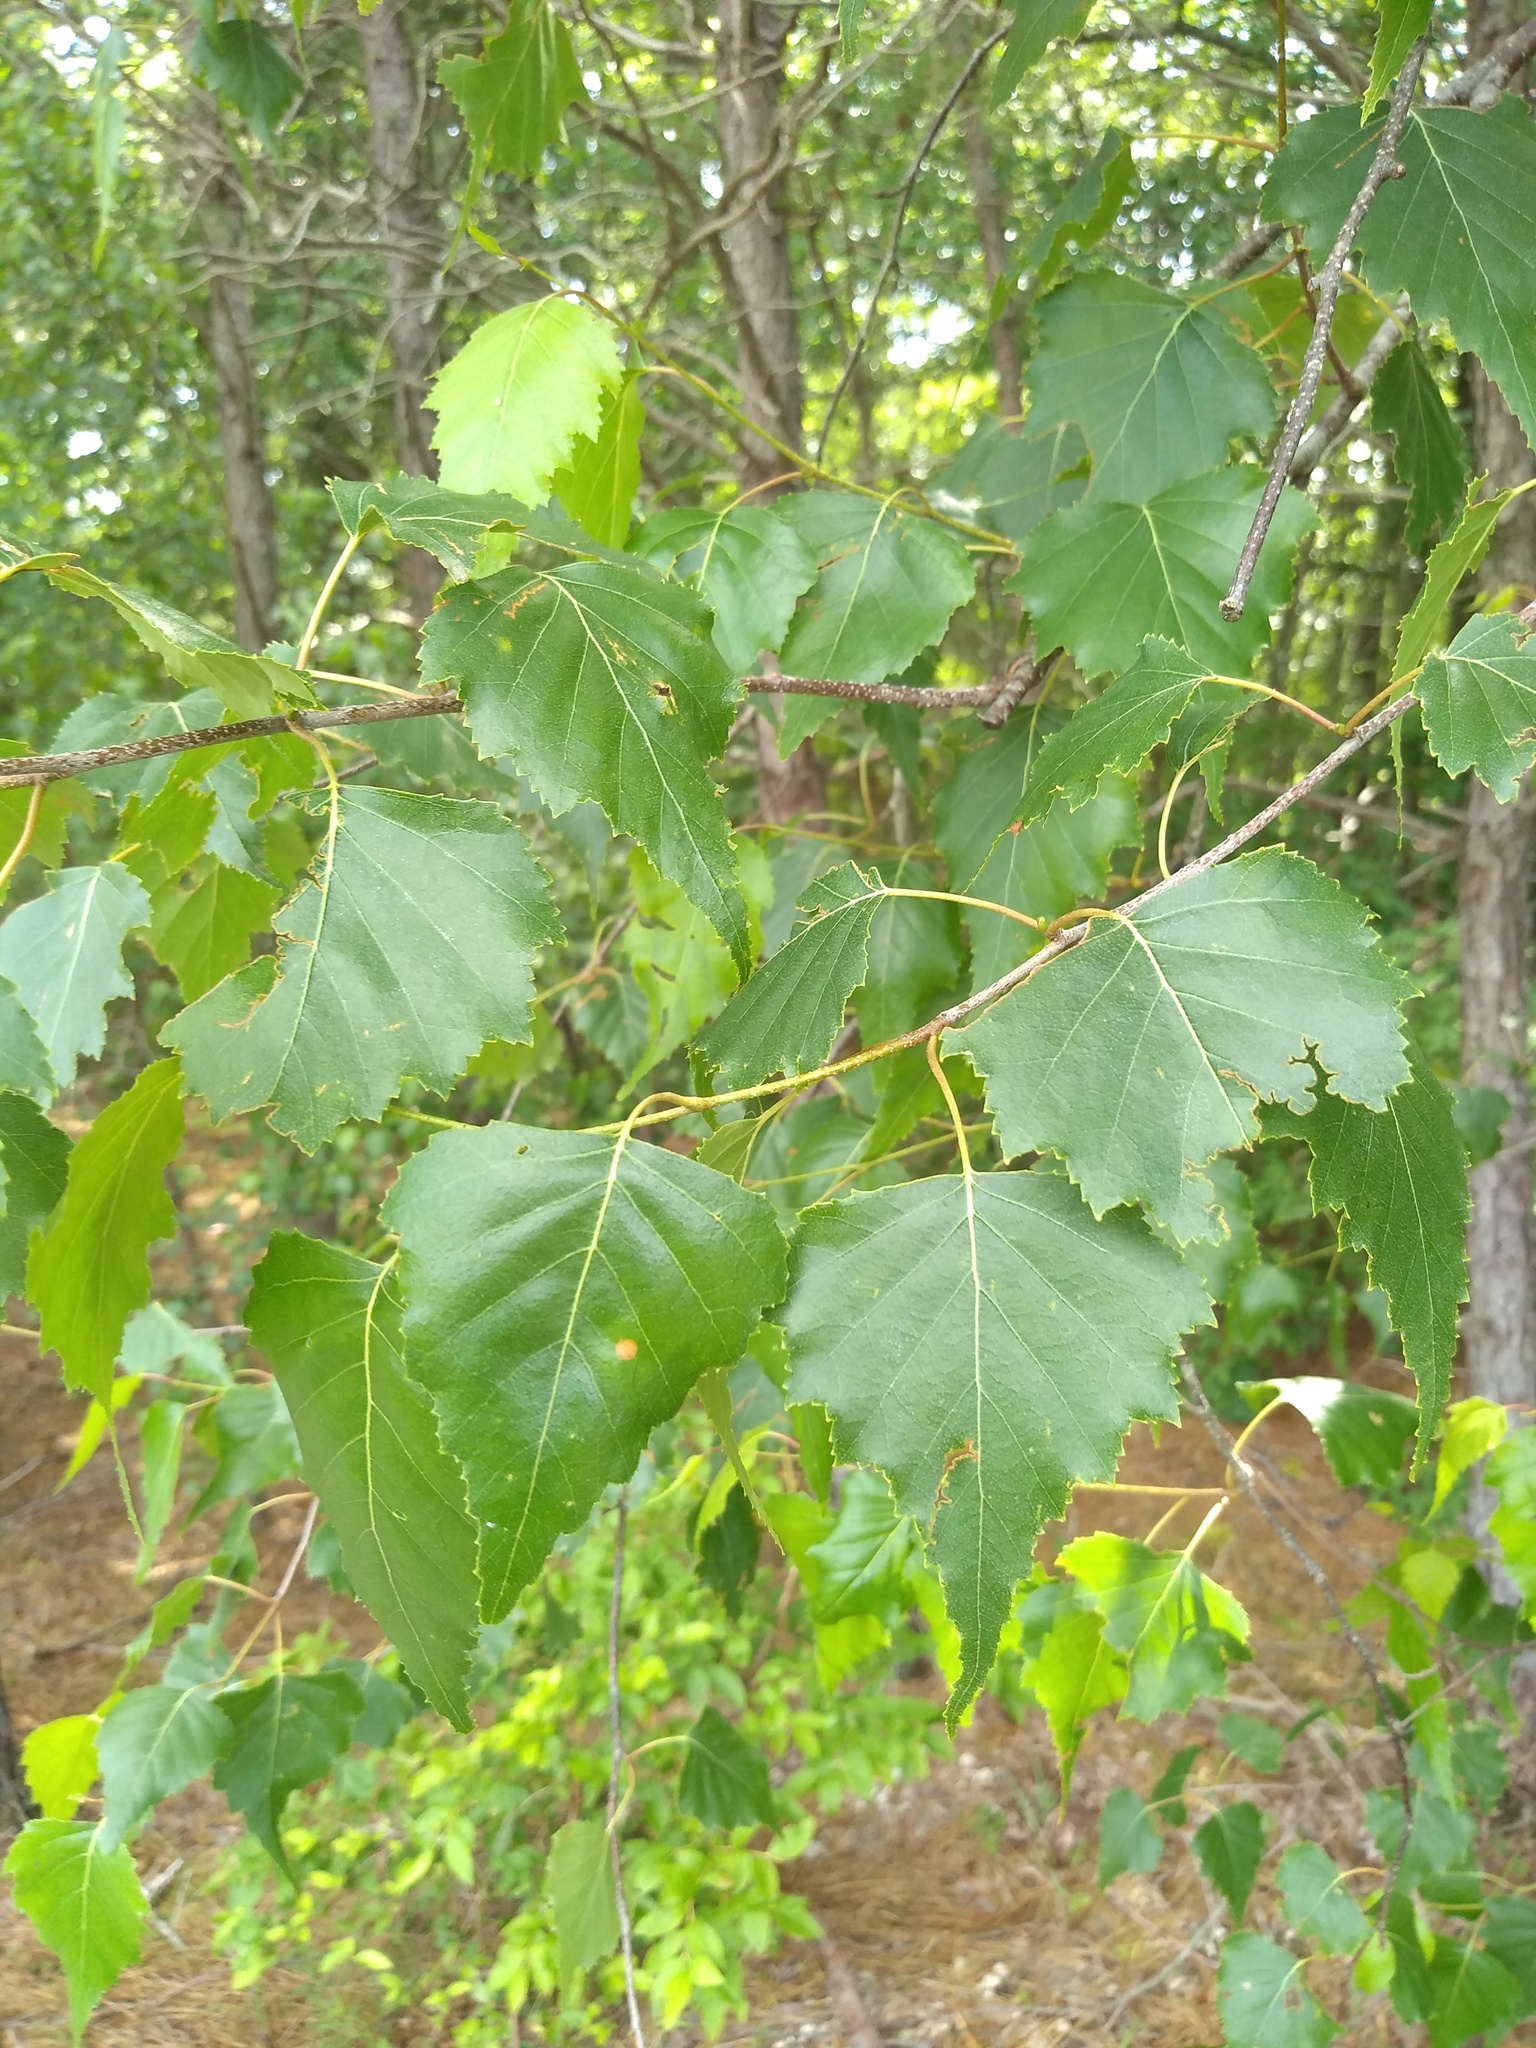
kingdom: Plantae
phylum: Tracheophyta
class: Magnoliopsida
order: Fagales
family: Betulaceae
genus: Betula
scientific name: Betula populifolia
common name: Fire birch
